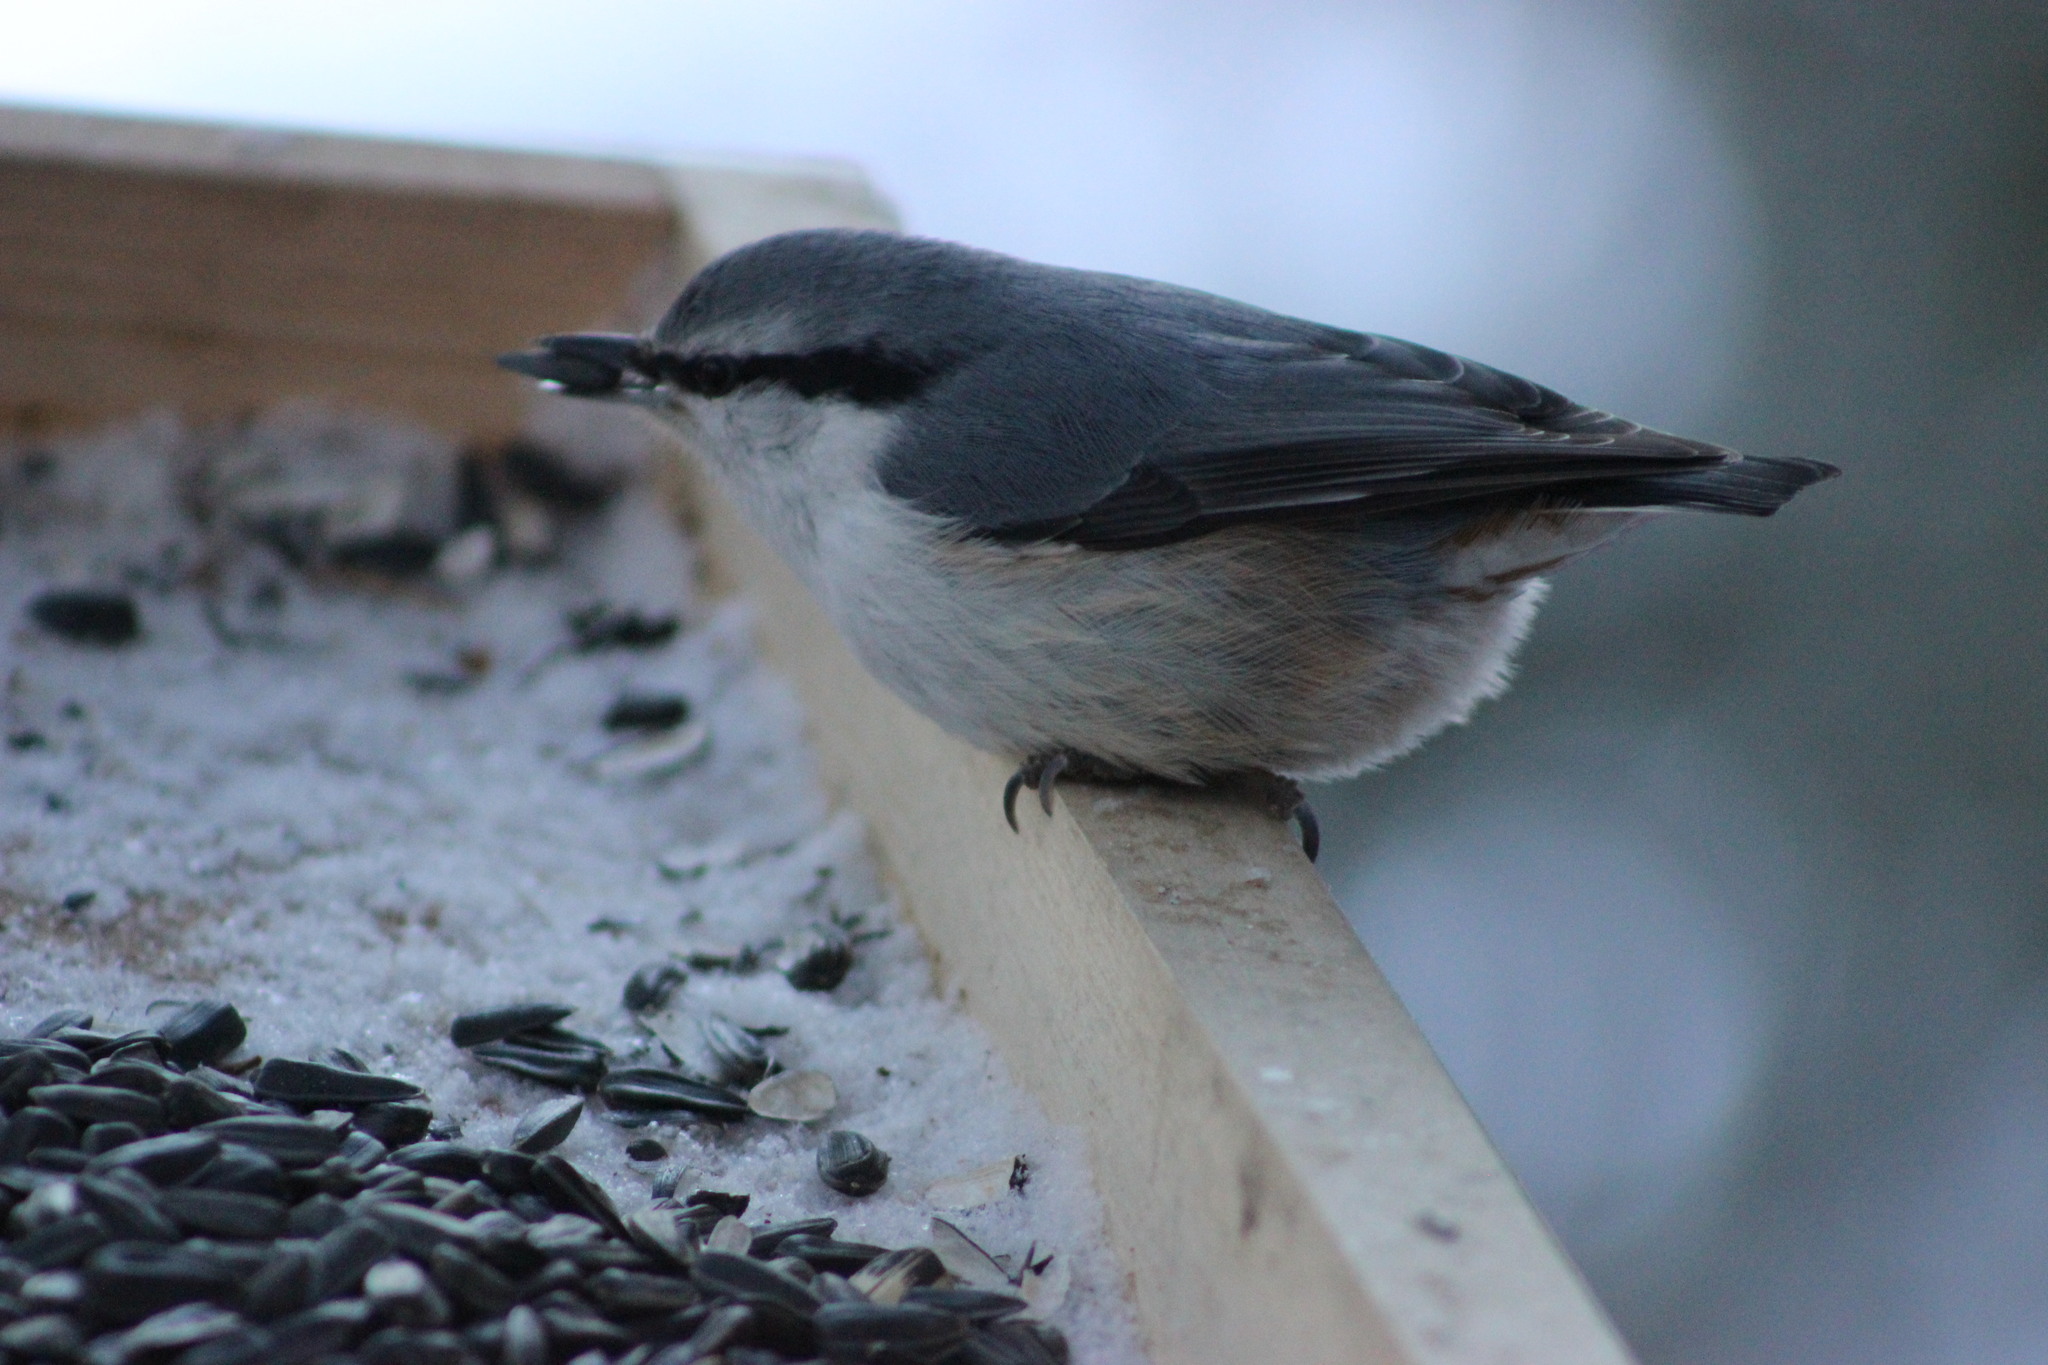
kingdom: Animalia
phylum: Chordata
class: Aves
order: Passeriformes
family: Sittidae
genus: Sitta
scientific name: Sitta europaea
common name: Eurasian nuthatch
